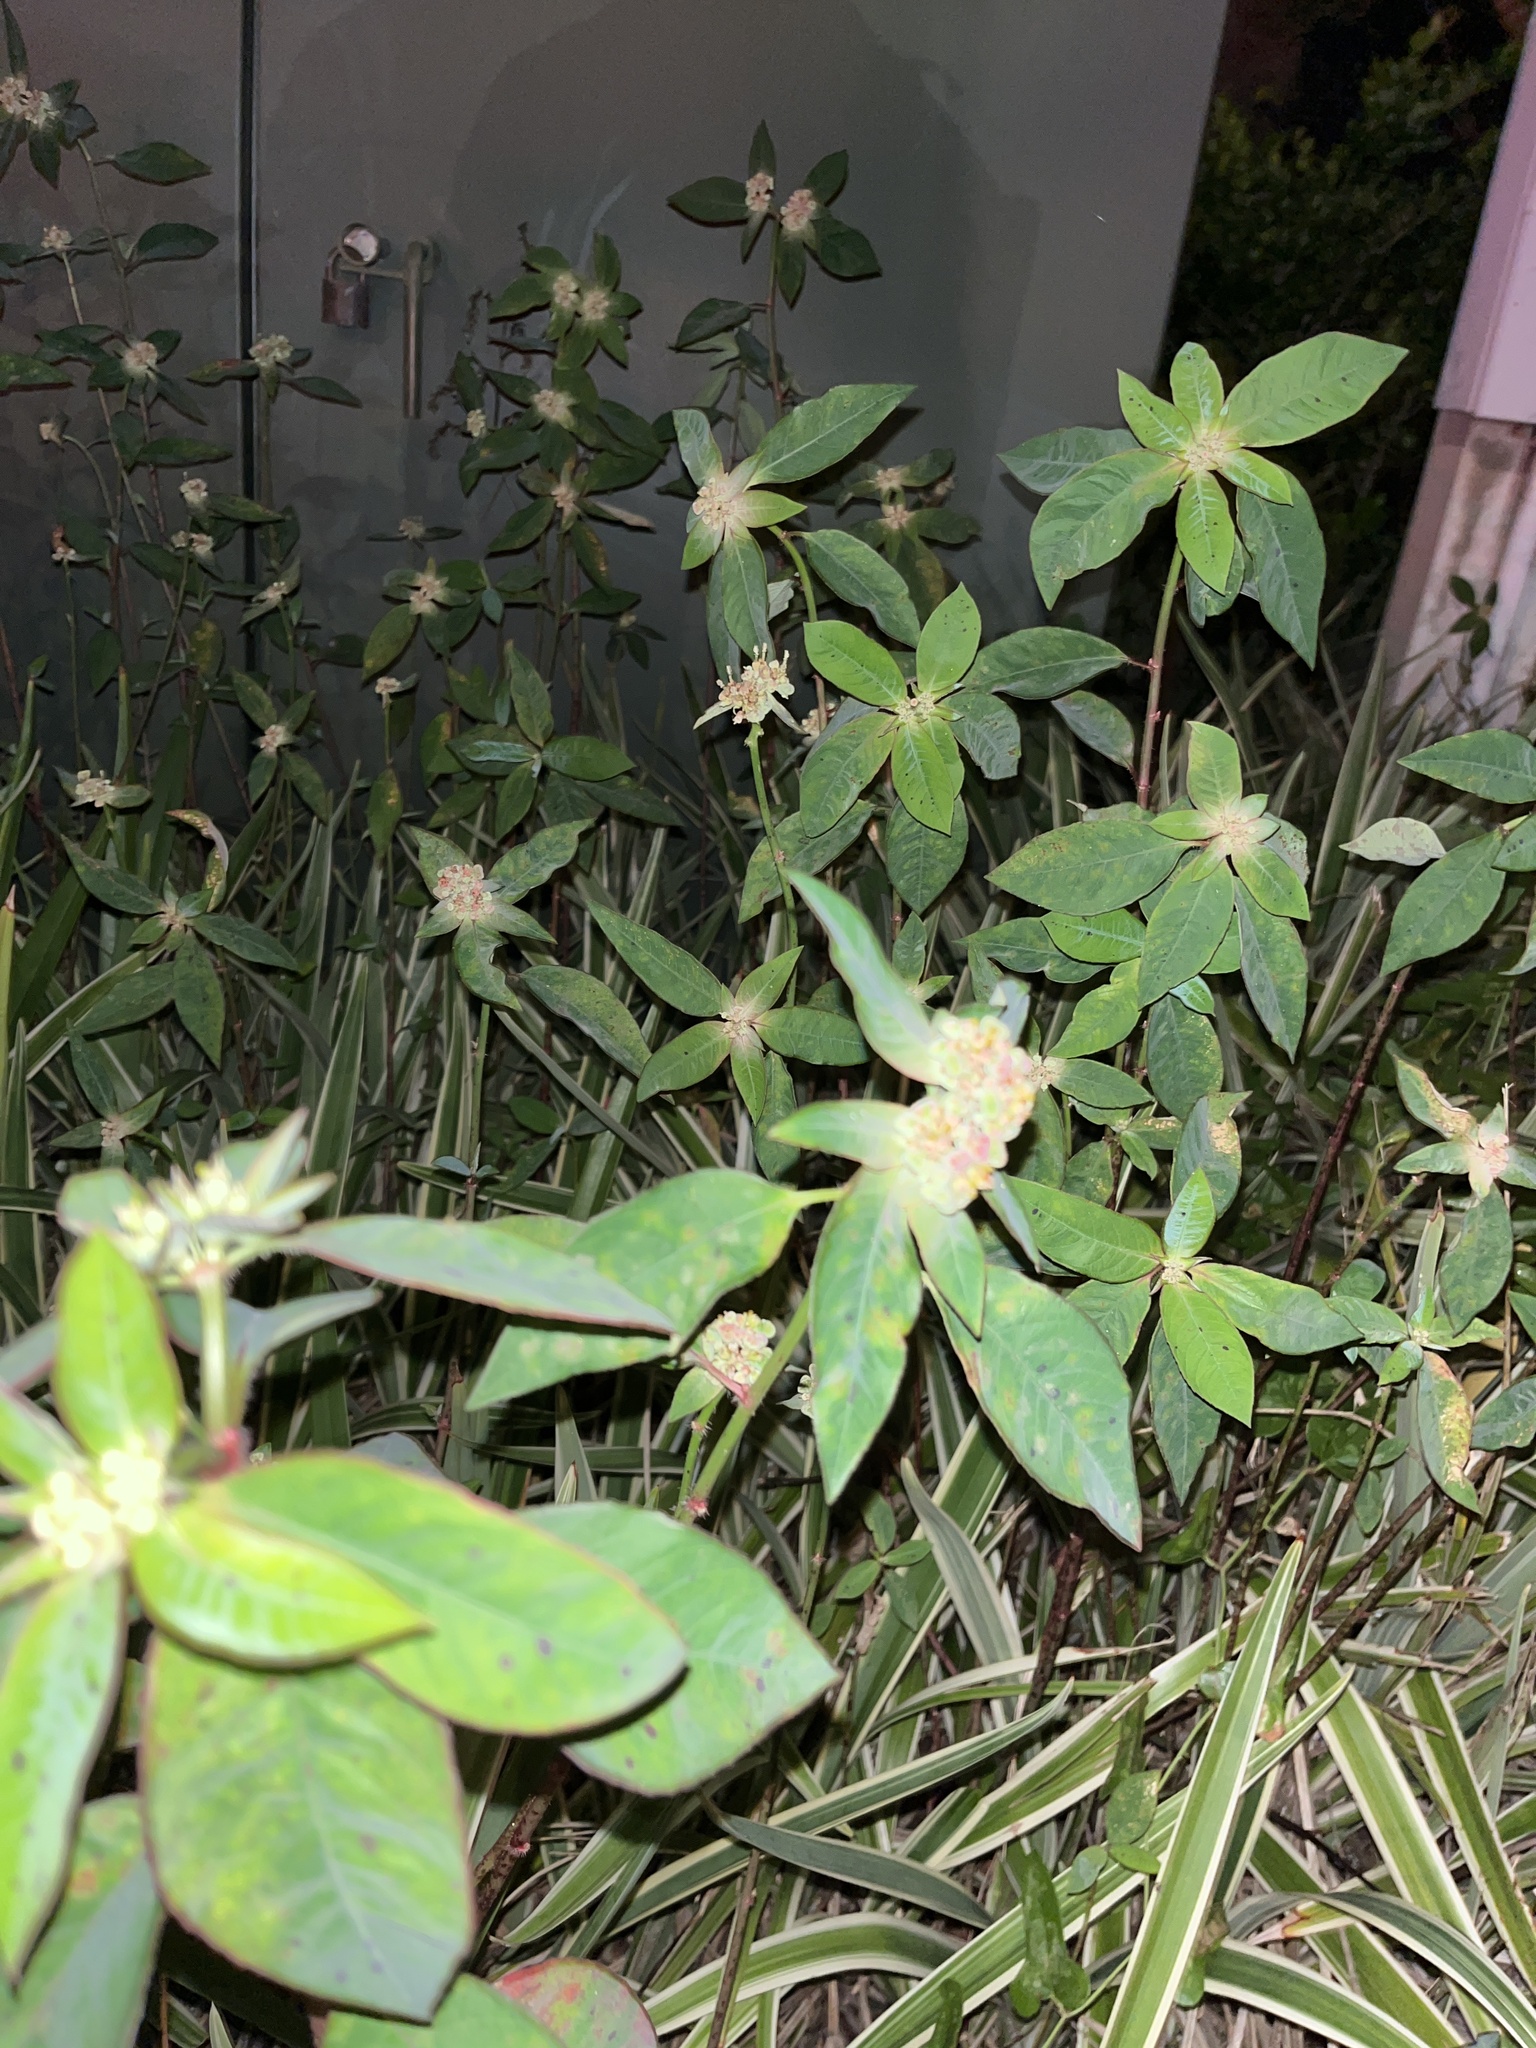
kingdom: Plantae
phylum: Tracheophyta
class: Magnoliopsida
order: Malpighiales
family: Euphorbiaceae
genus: Euphorbia
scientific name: Euphorbia heterophylla
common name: Mexican fireplant
